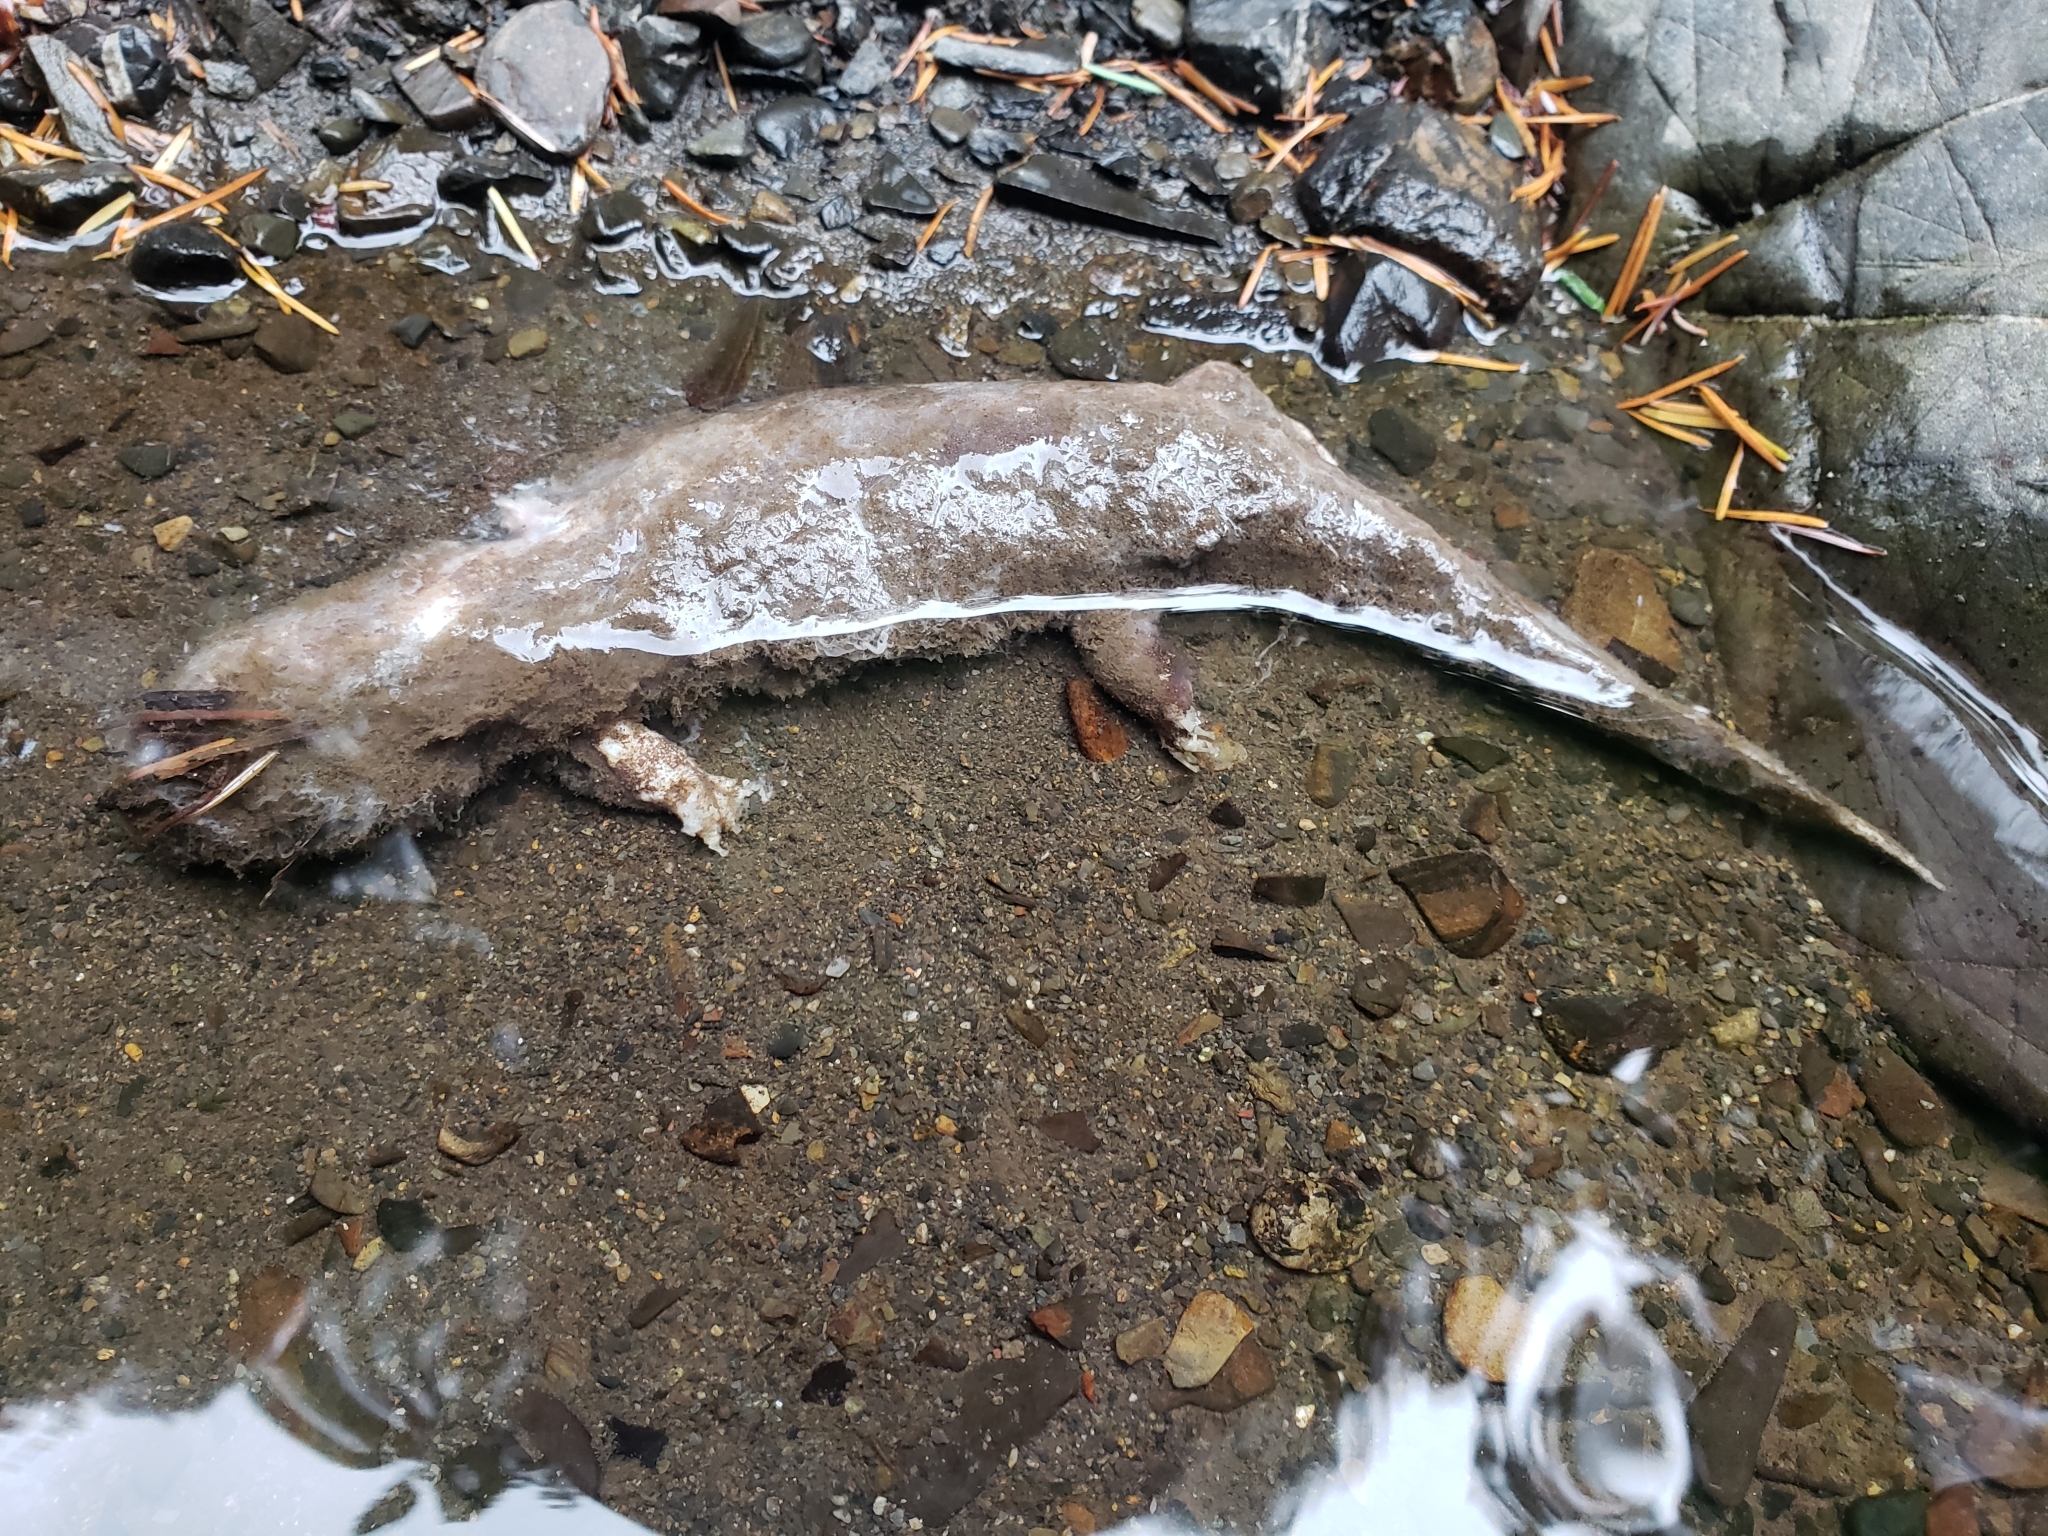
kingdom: Animalia
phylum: Chordata
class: Amphibia
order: Caudata
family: Ambystomatidae
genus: Dicamptodon
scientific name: Dicamptodon tenebrosus
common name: Coastal giant salamander
